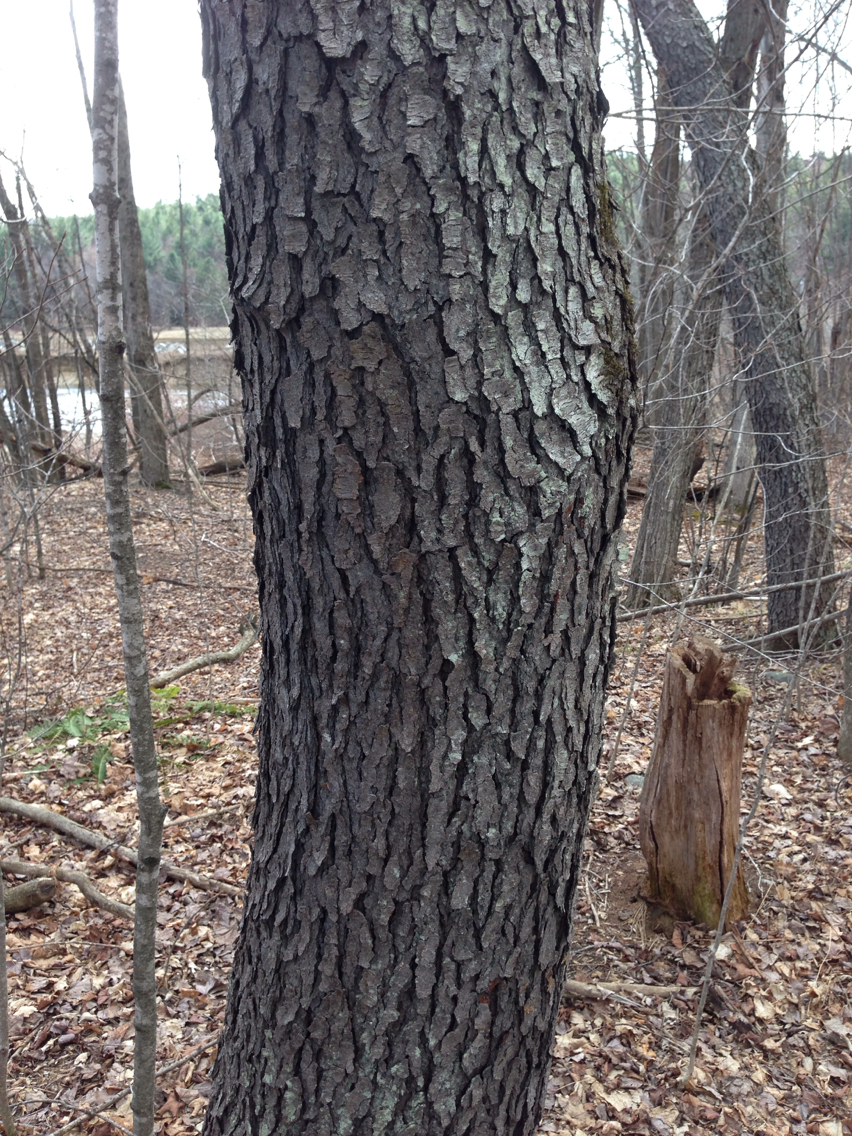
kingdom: Plantae
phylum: Tracheophyta
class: Magnoliopsida
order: Rosales
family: Rosaceae
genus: Prunus
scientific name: Prunus serotina
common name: Black cherry
